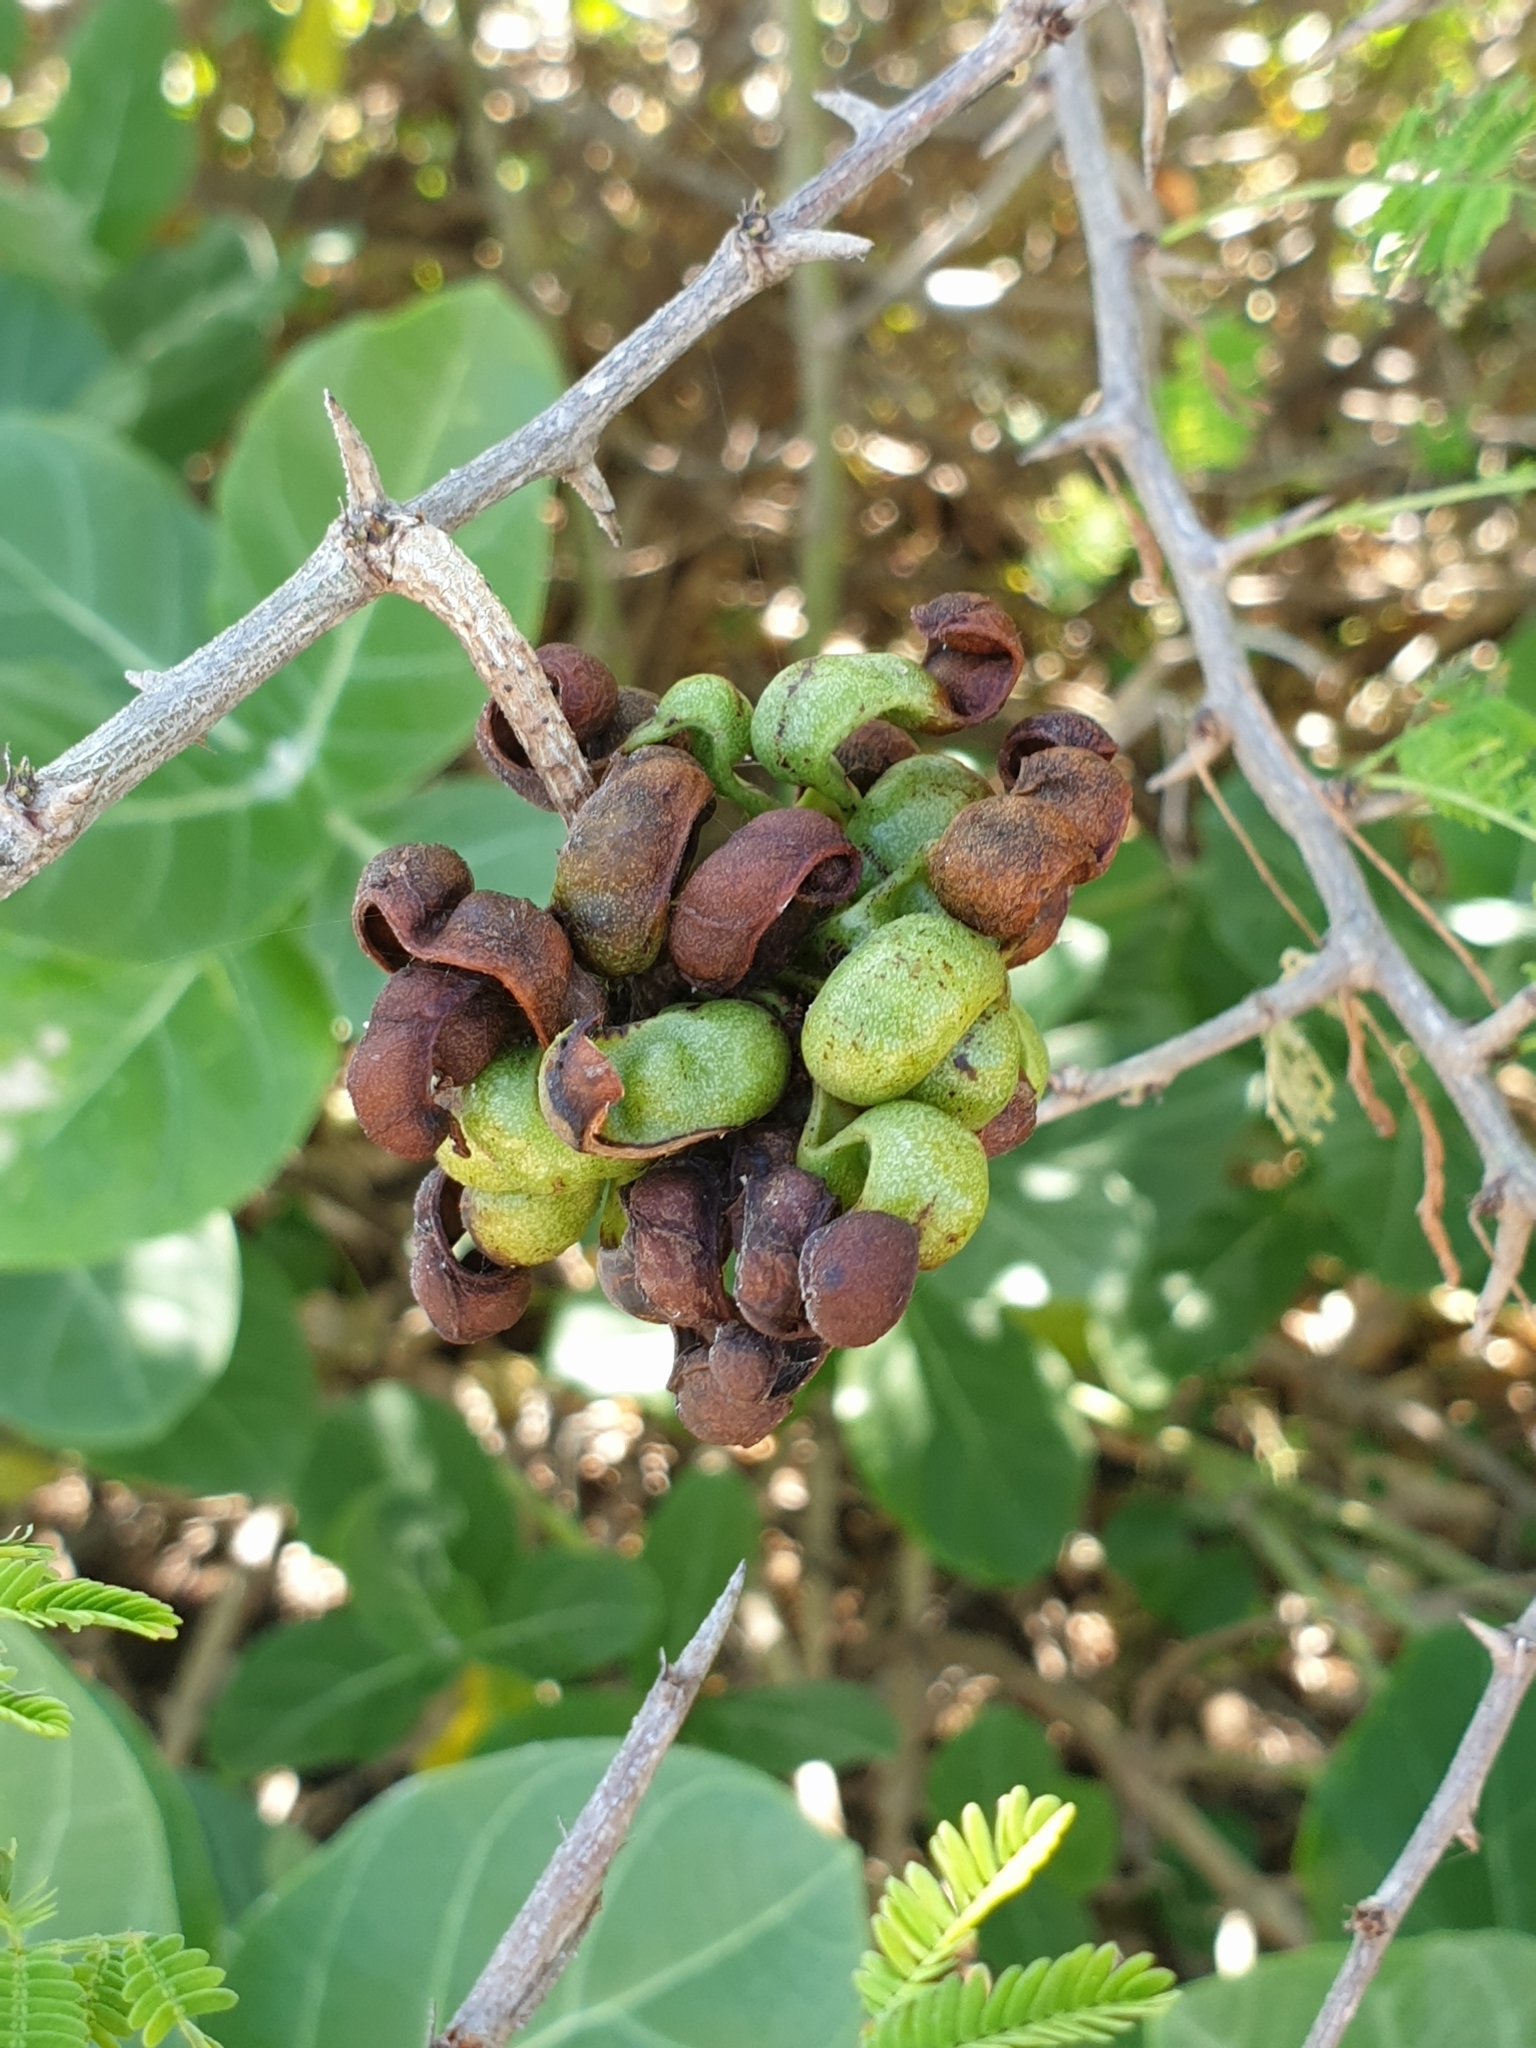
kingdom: Plantae
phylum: Tracheophyta
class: Magnoliopsida
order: Fabales
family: Fabaceae
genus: Dichrostachys
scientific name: Dichrostachys cinerea
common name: Sicklebush
